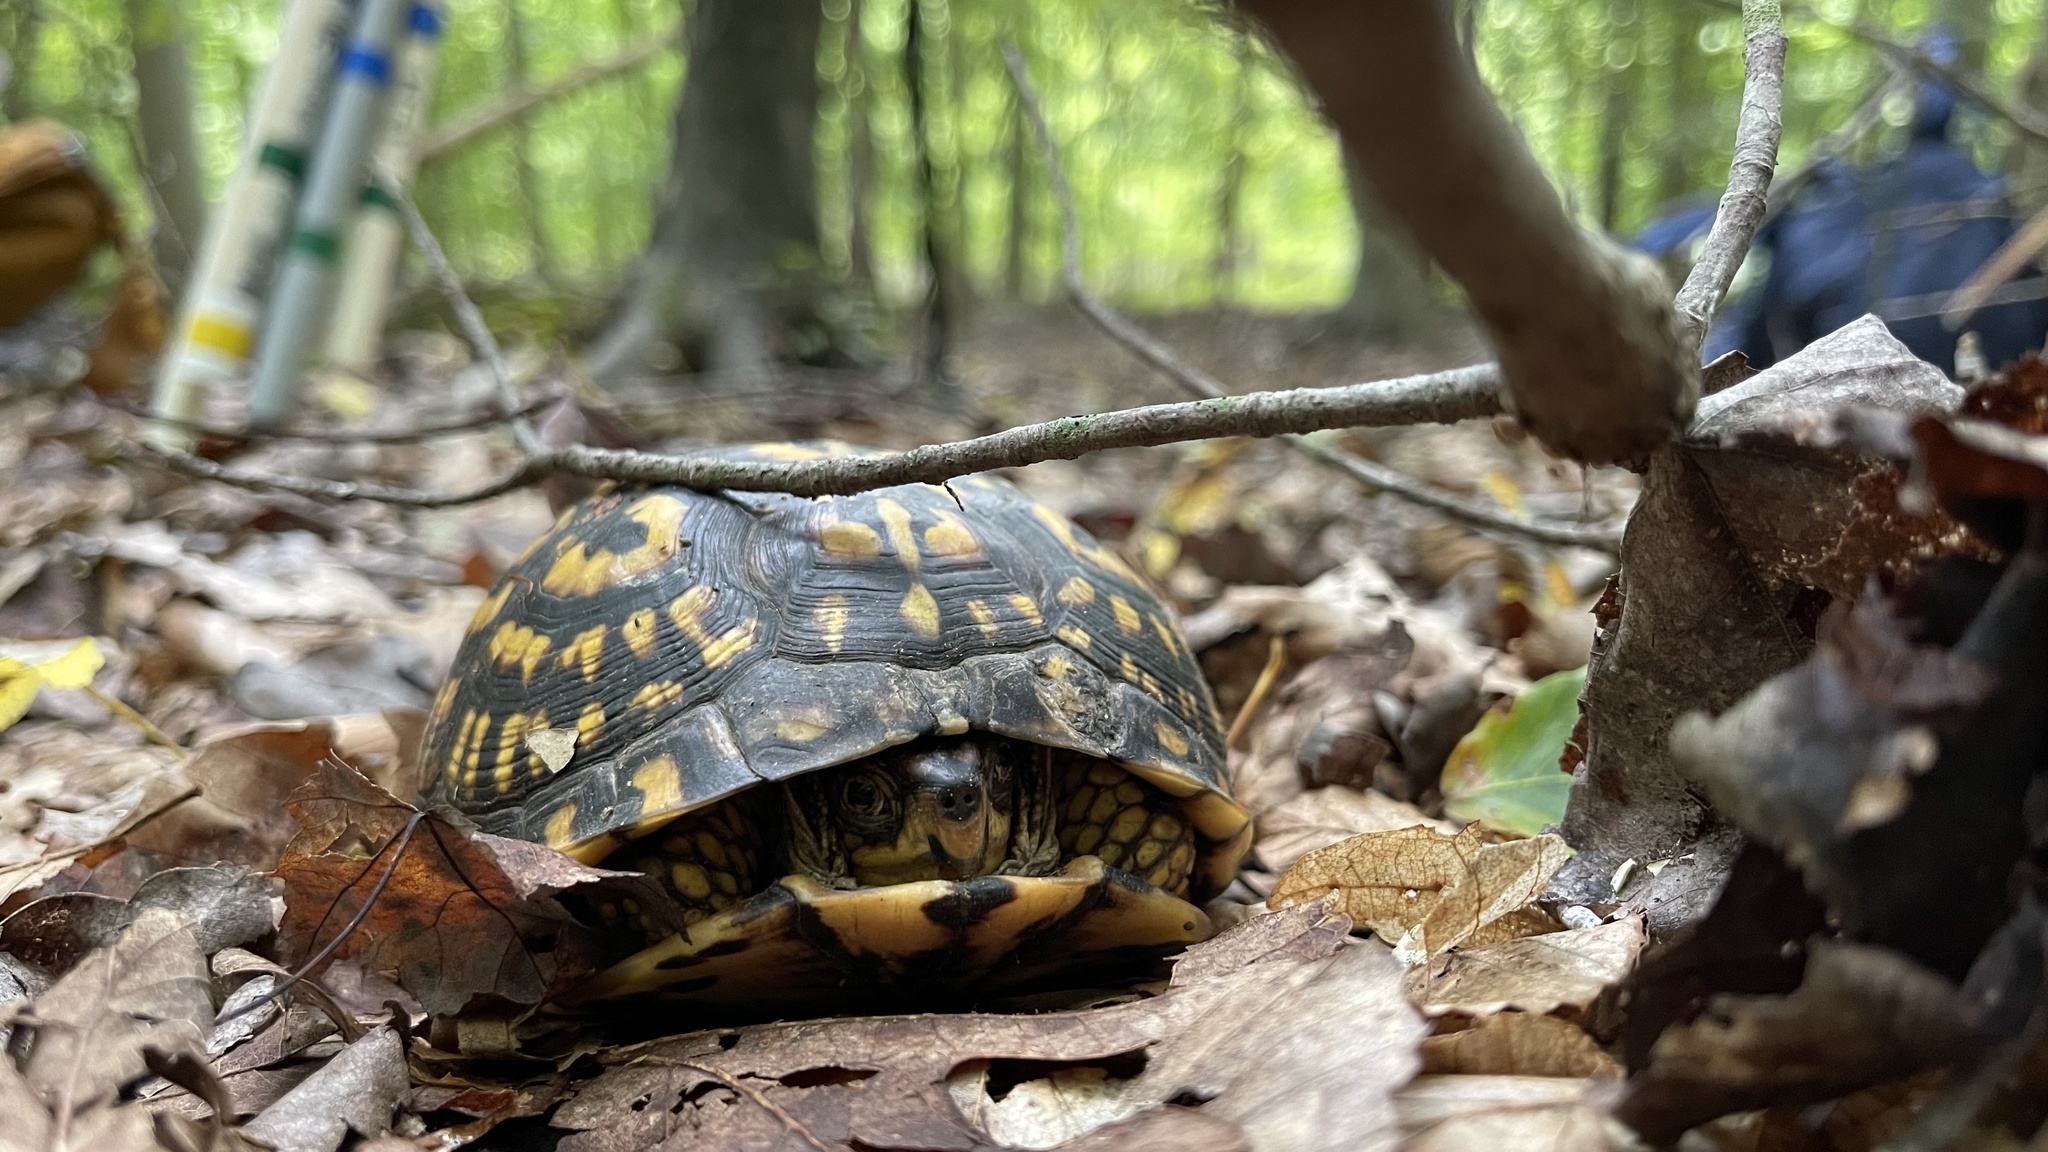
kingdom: Animalia
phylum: Chordata
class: Testudines
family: Emydidae
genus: Terrapene
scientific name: Terrapene carolina
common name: Common box turtle
